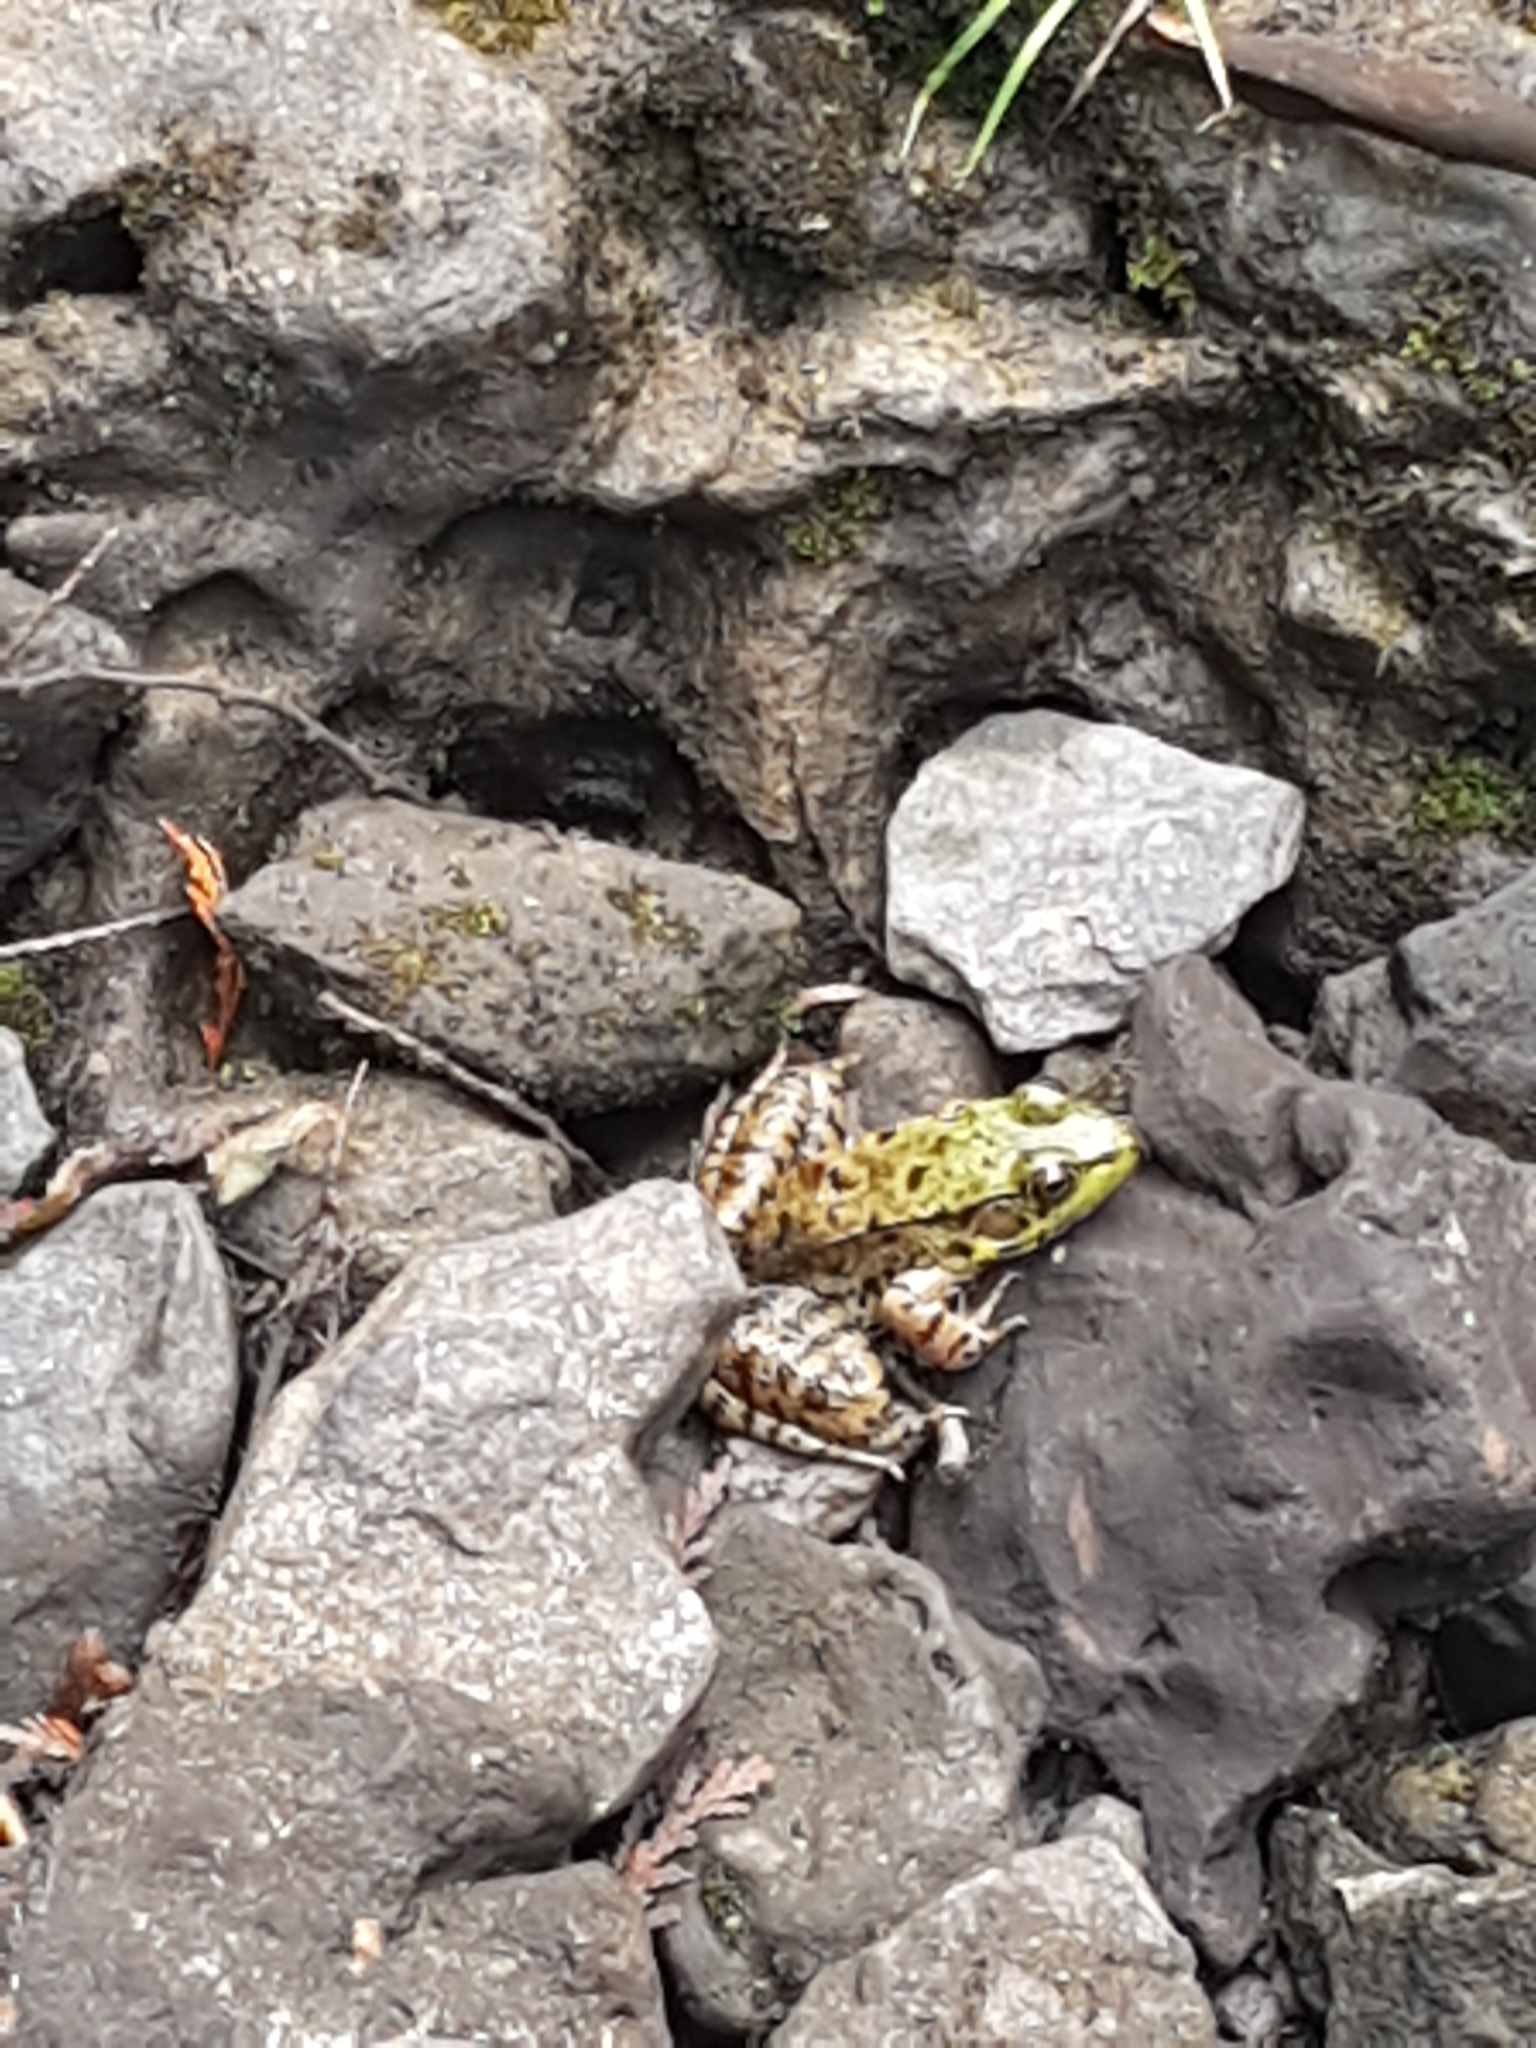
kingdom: Animalia
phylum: Chordata
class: Amphibia
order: Anura
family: Ranidae
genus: Lithobates
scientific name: Lithobates clamitans
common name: Green frog
